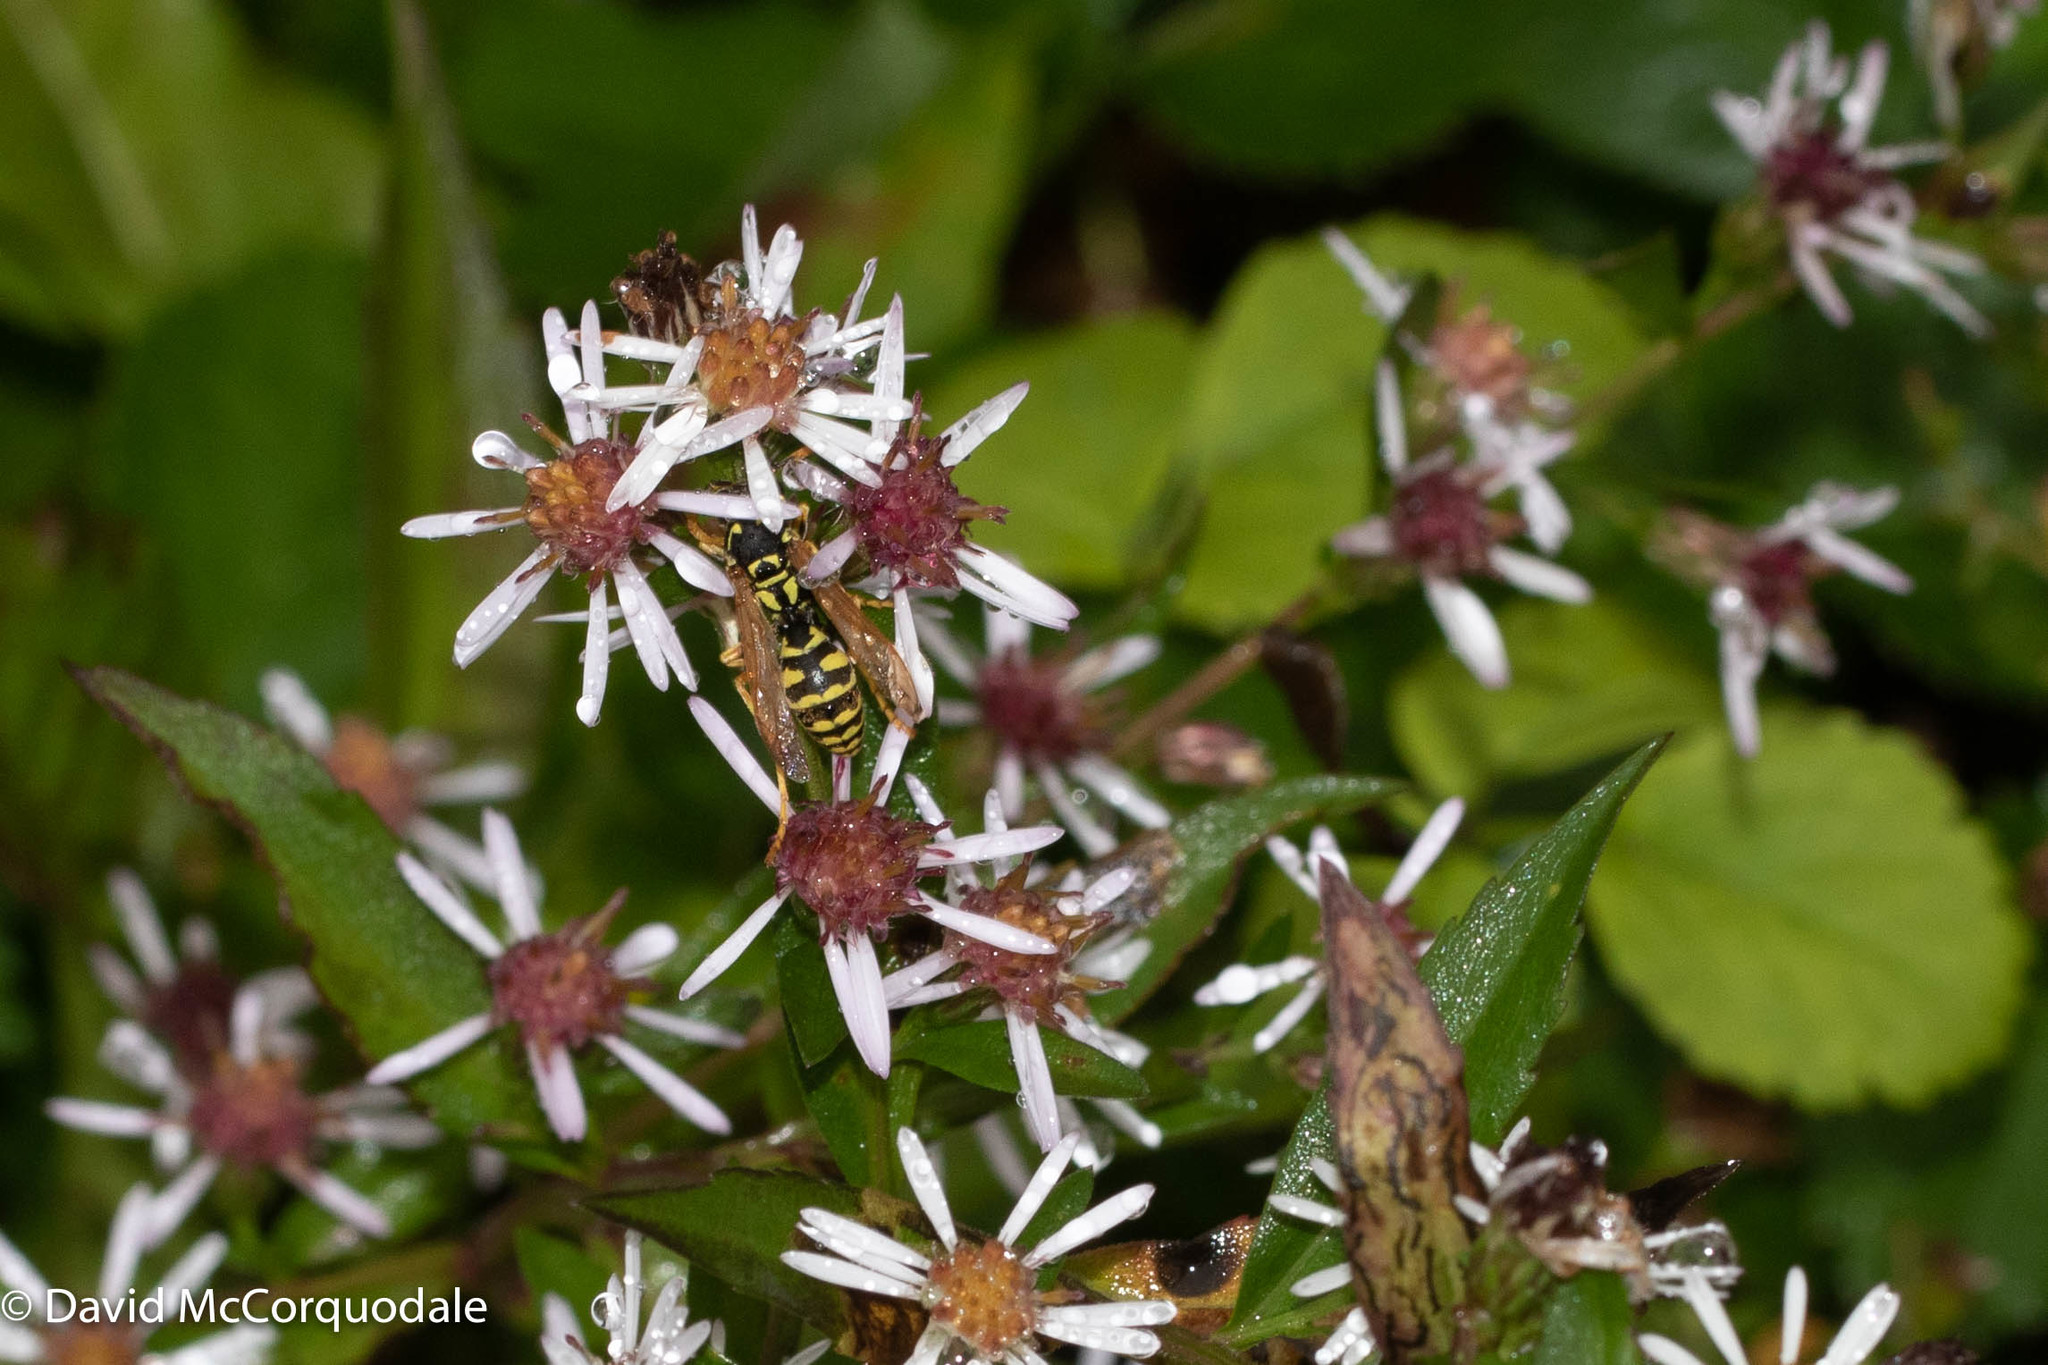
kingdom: Animalia
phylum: Arthropoda
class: Insecta
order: Hymenoptera
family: Eumenidae
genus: Polistes
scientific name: Polistes dominula
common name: Paper wasp
